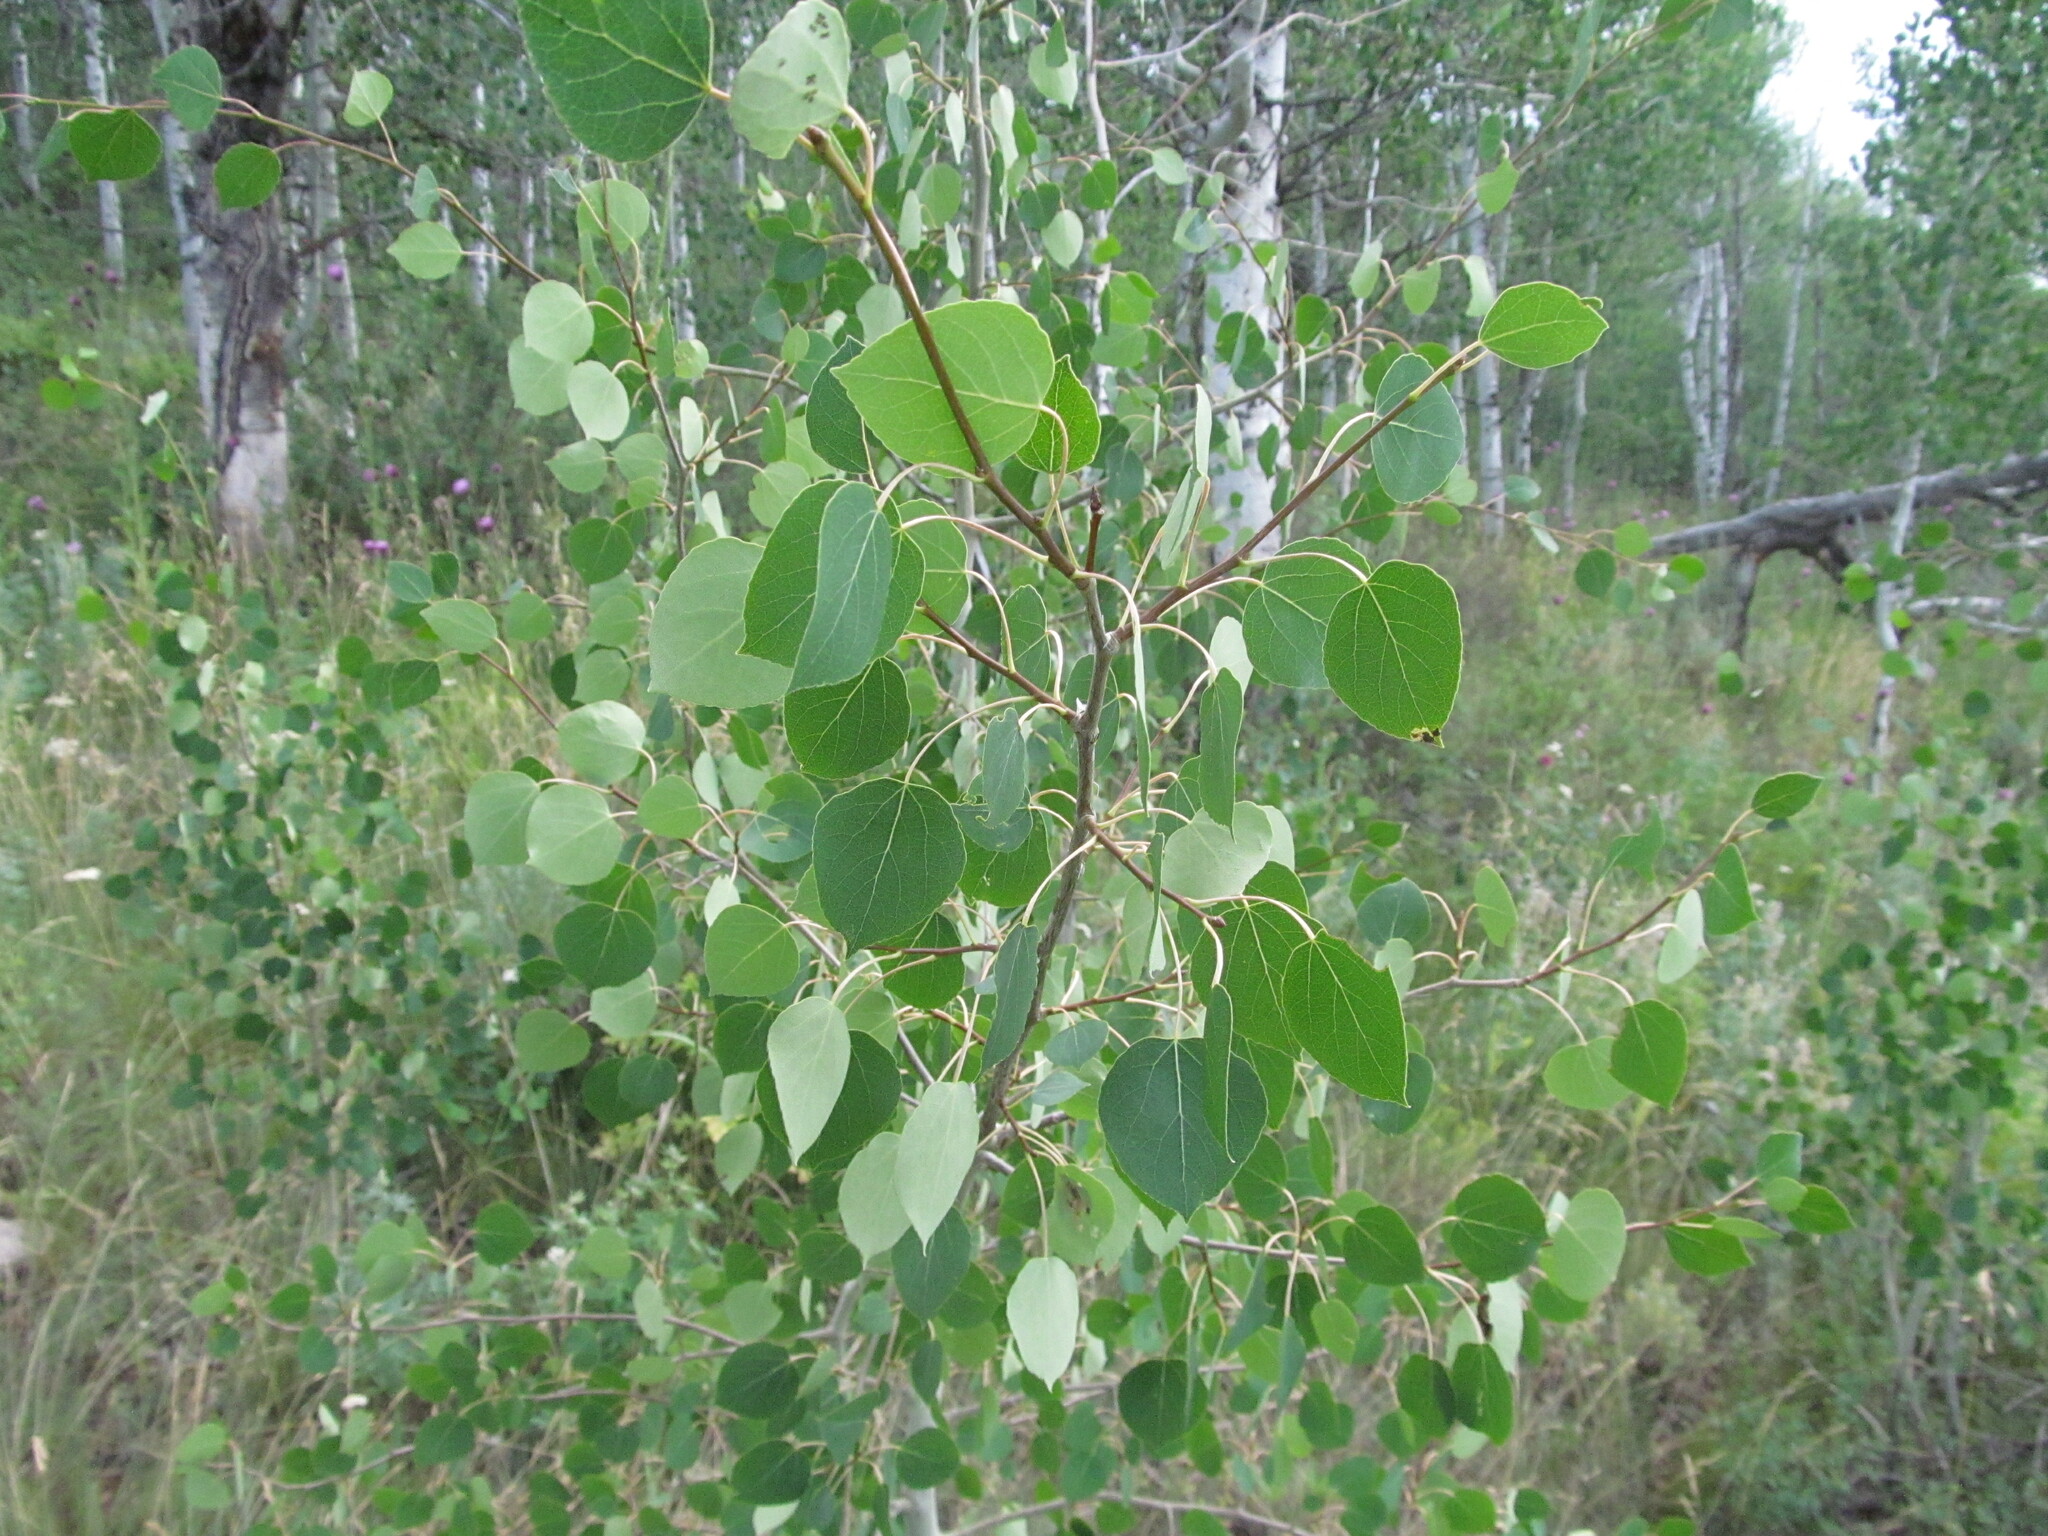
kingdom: Plantae
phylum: Tracheophyta
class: Magnoliopsida
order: Malpighiales
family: Salicaceae
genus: Populus
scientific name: Populus tremuloides
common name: Quaking aspen
